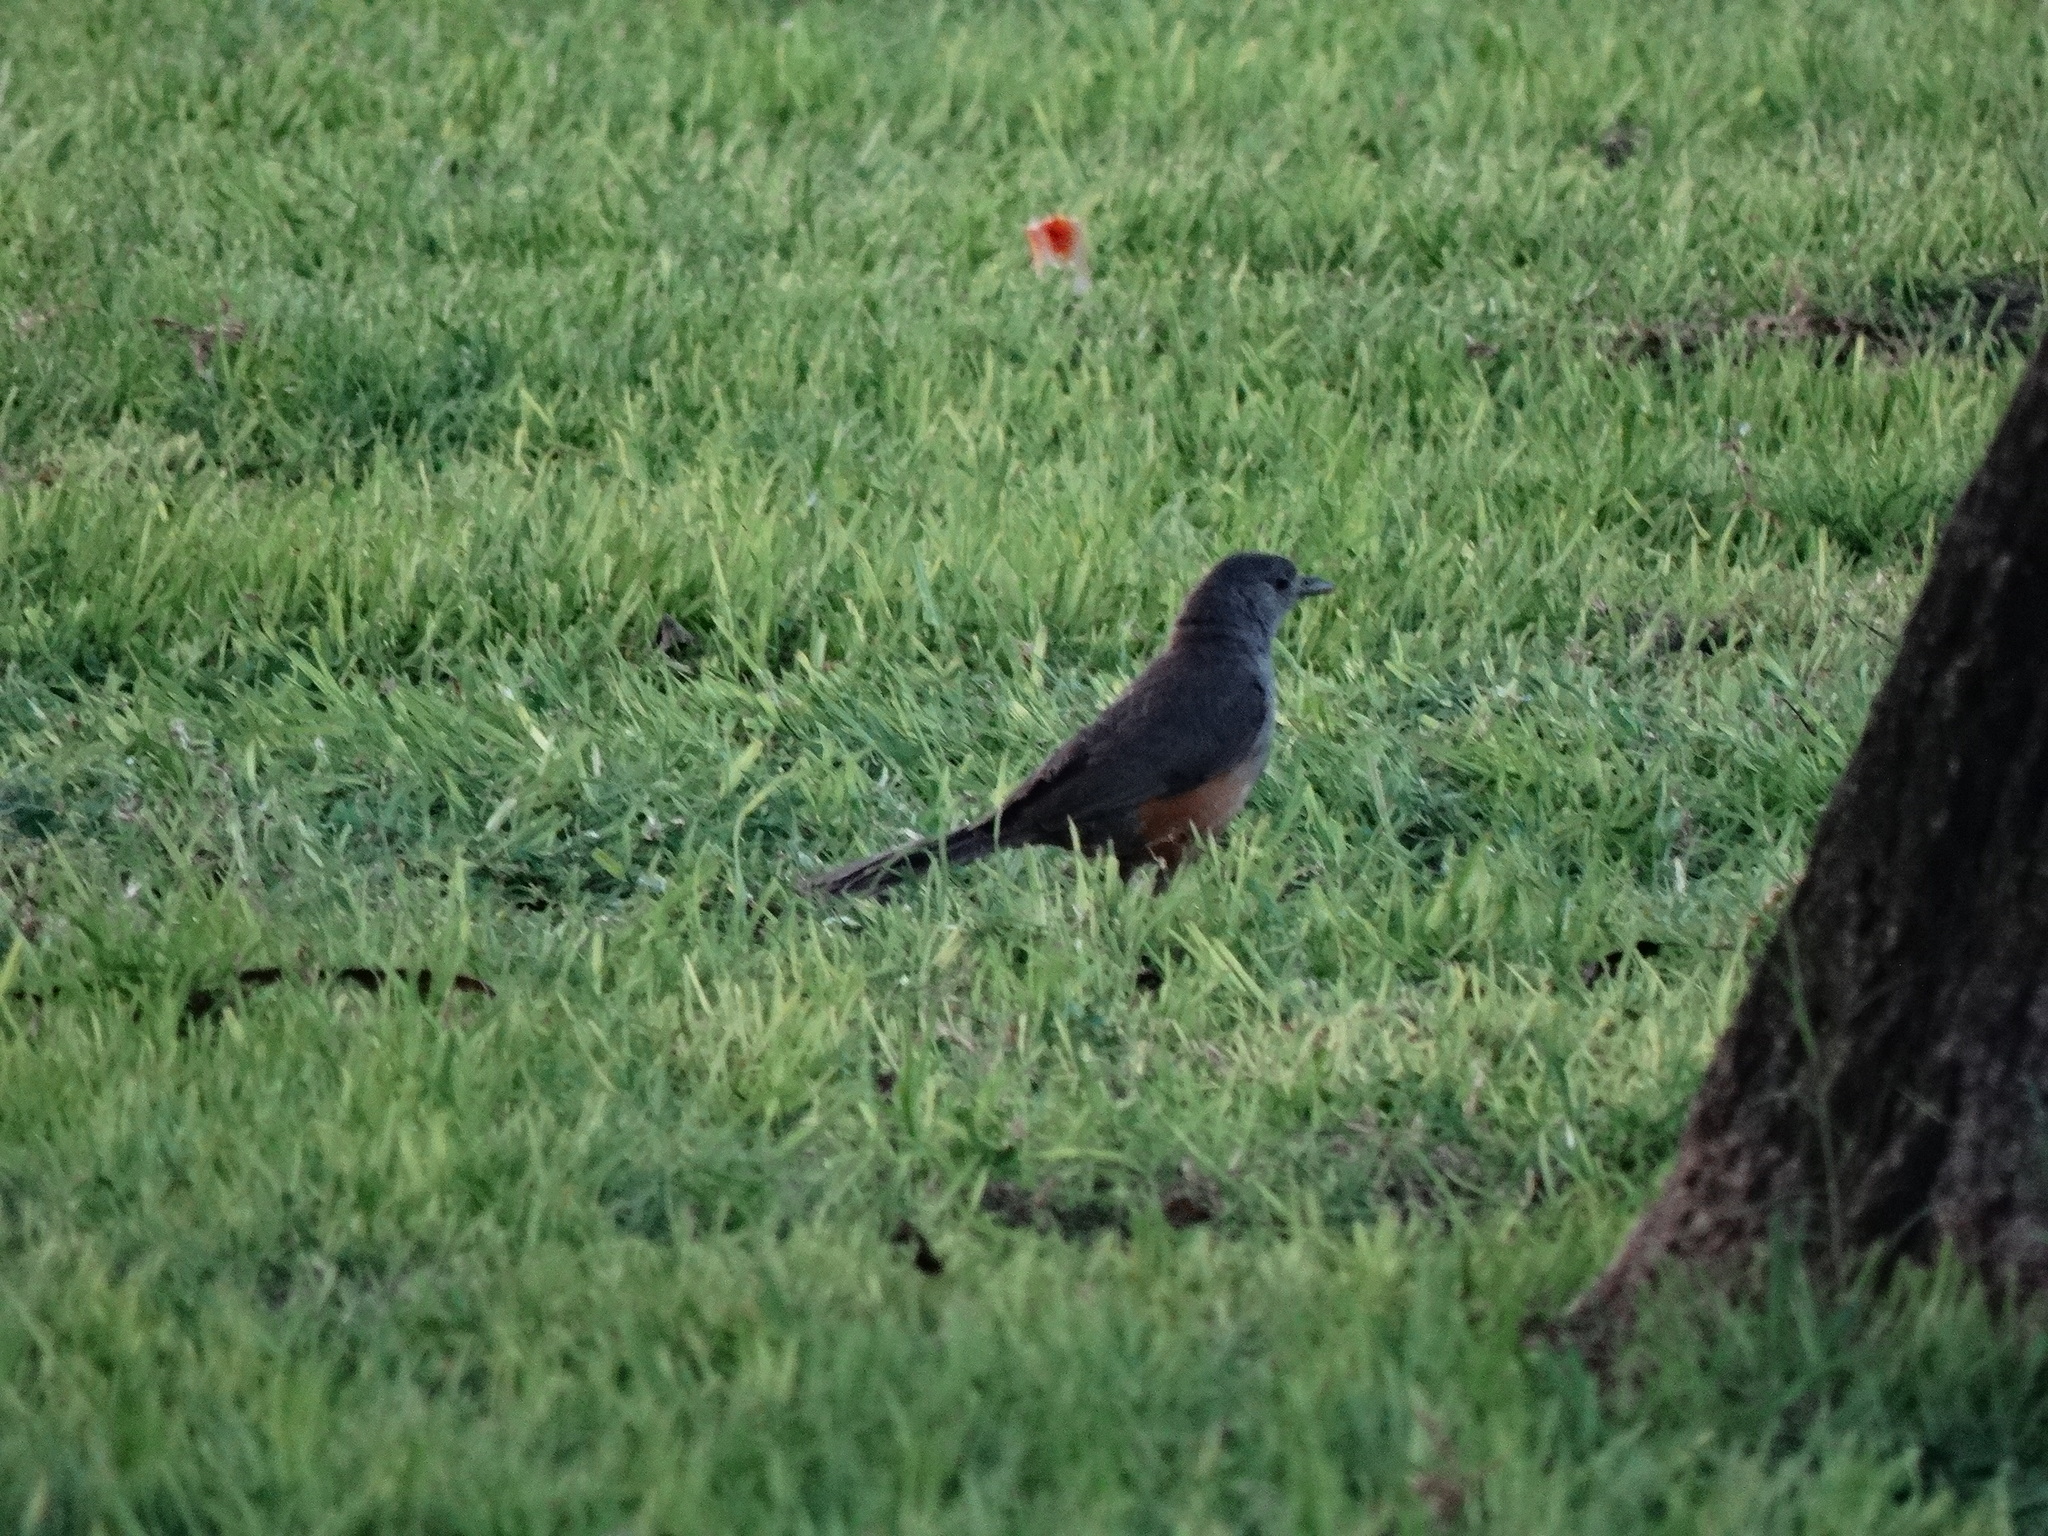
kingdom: Animalia
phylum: Chordata
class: Aves
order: Passeriformes
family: Turdidae
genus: Turdus
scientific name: Turdus rufiventris
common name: Rufous-bellied thrush
